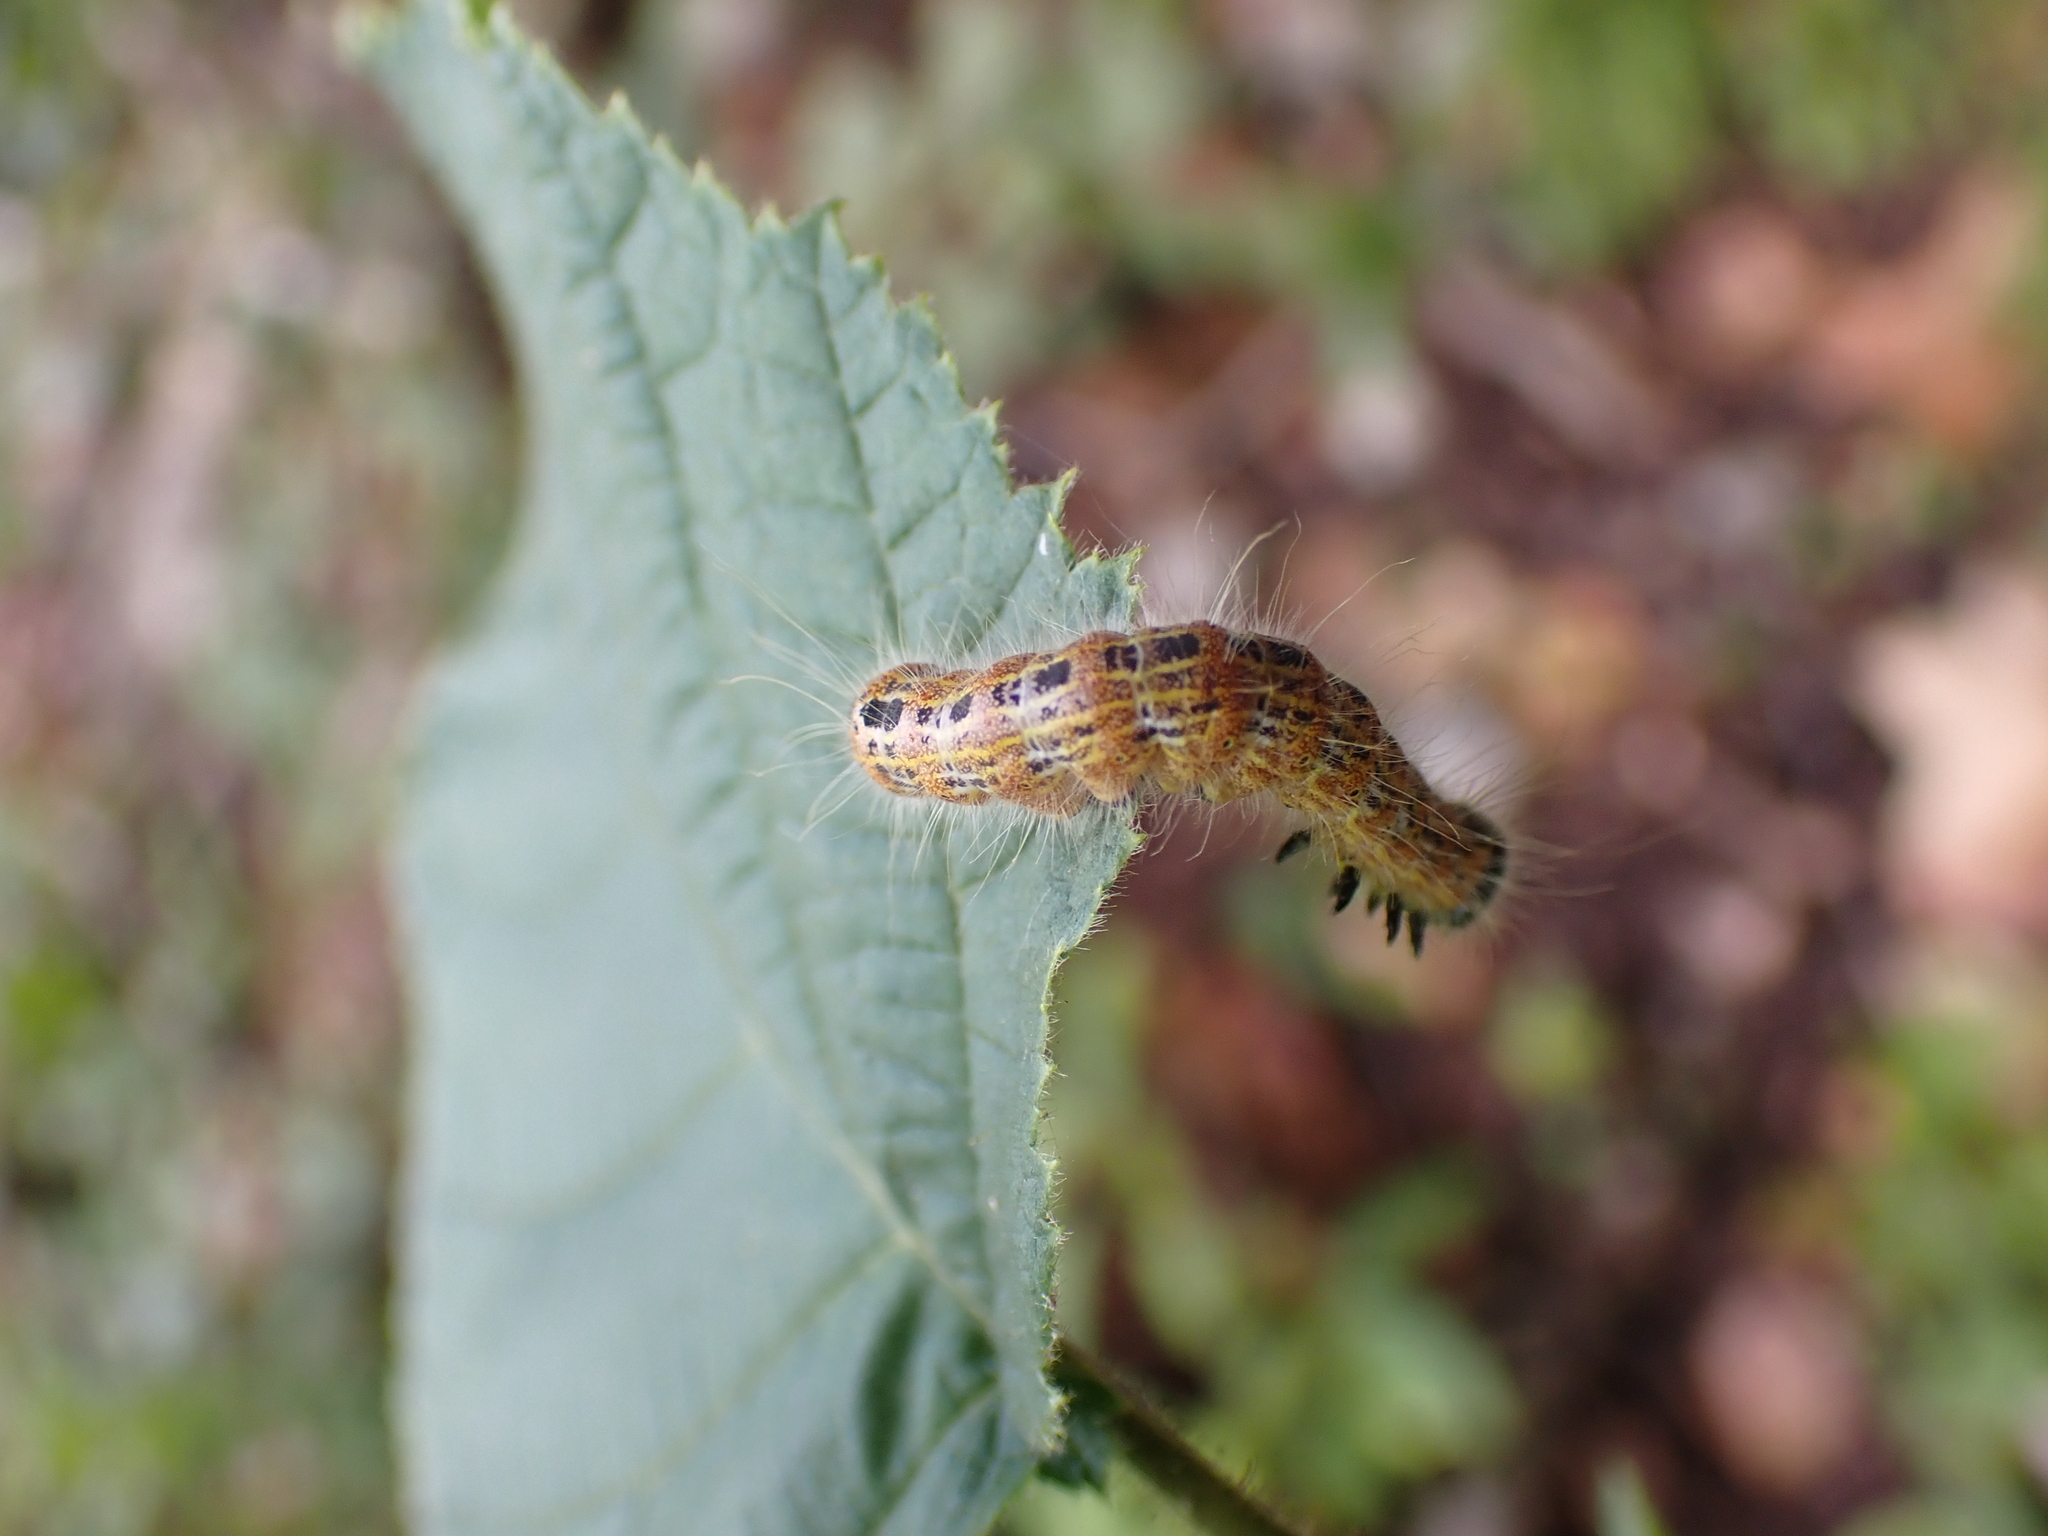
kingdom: Animalia
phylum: Arthropoda
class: Insecta
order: Lepidoptera
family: Notodontidae
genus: Phalera
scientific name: Phalera bucephala
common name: Buff-tip
